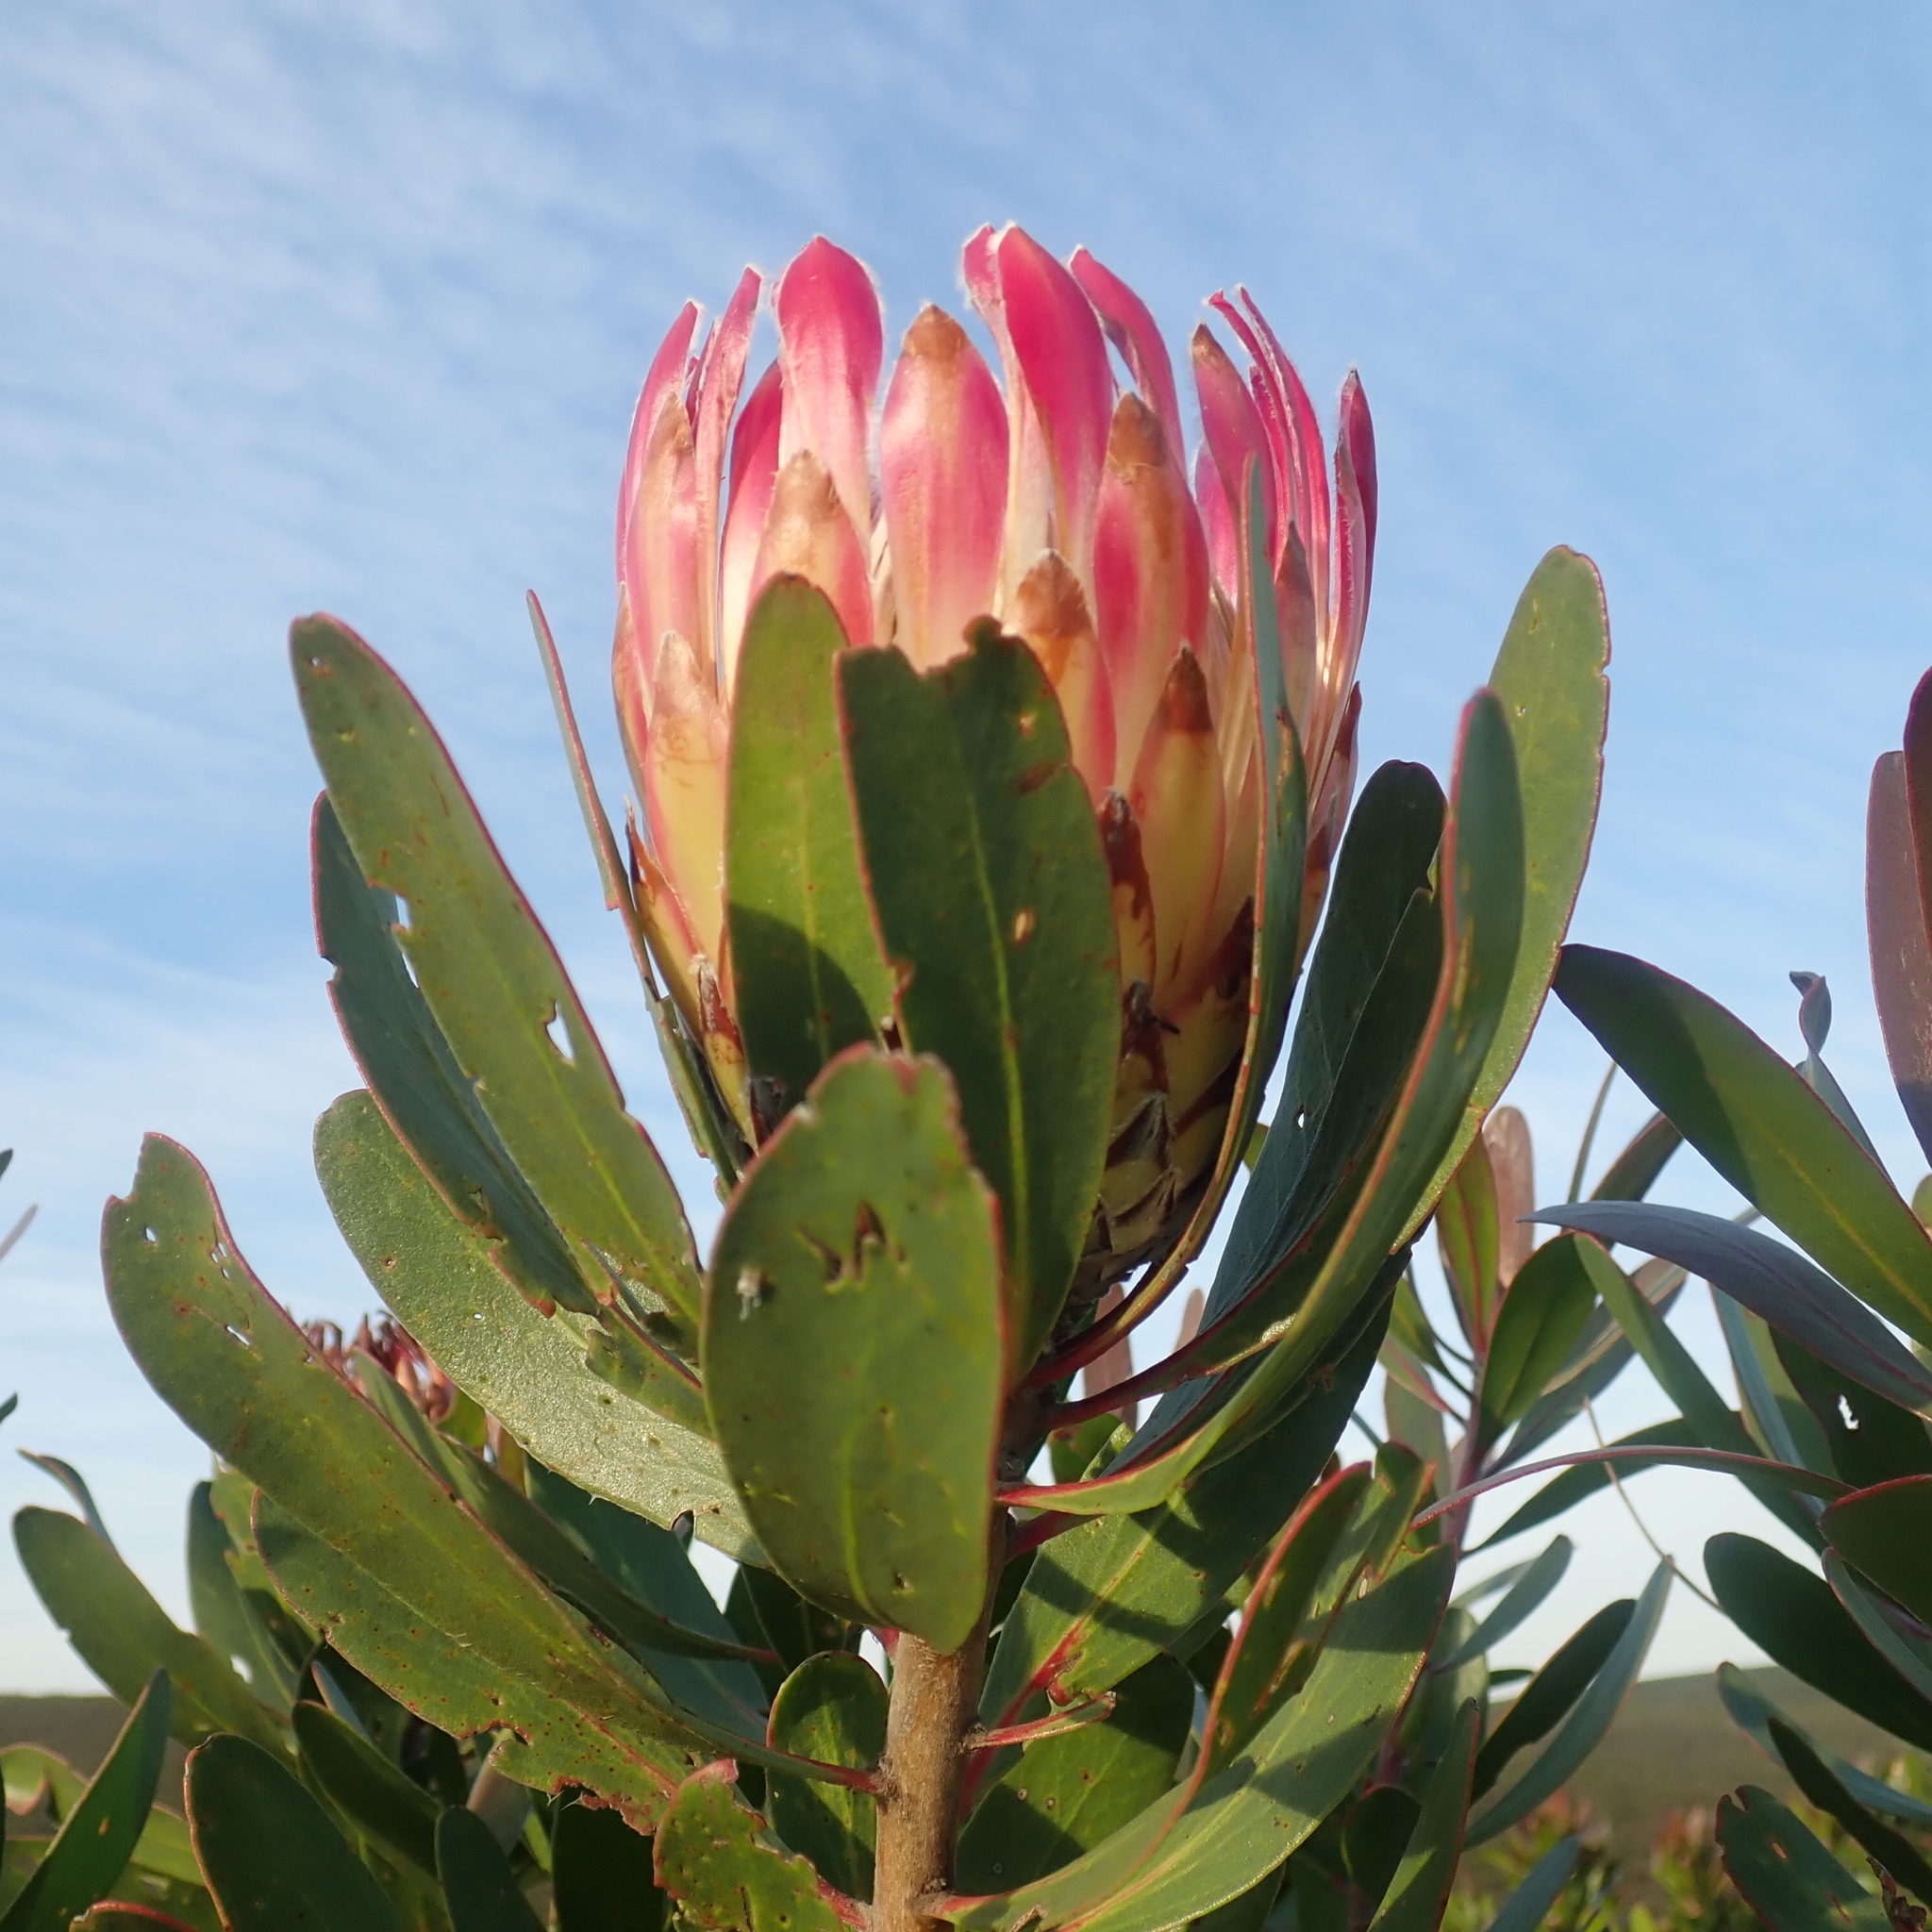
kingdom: Plantae
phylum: Tracheophyta
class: Magnoliopsida
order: Proteales
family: Proteaceae
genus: Protea
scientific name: Protea obtusifolia
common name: Bredasdorp sugarbush
